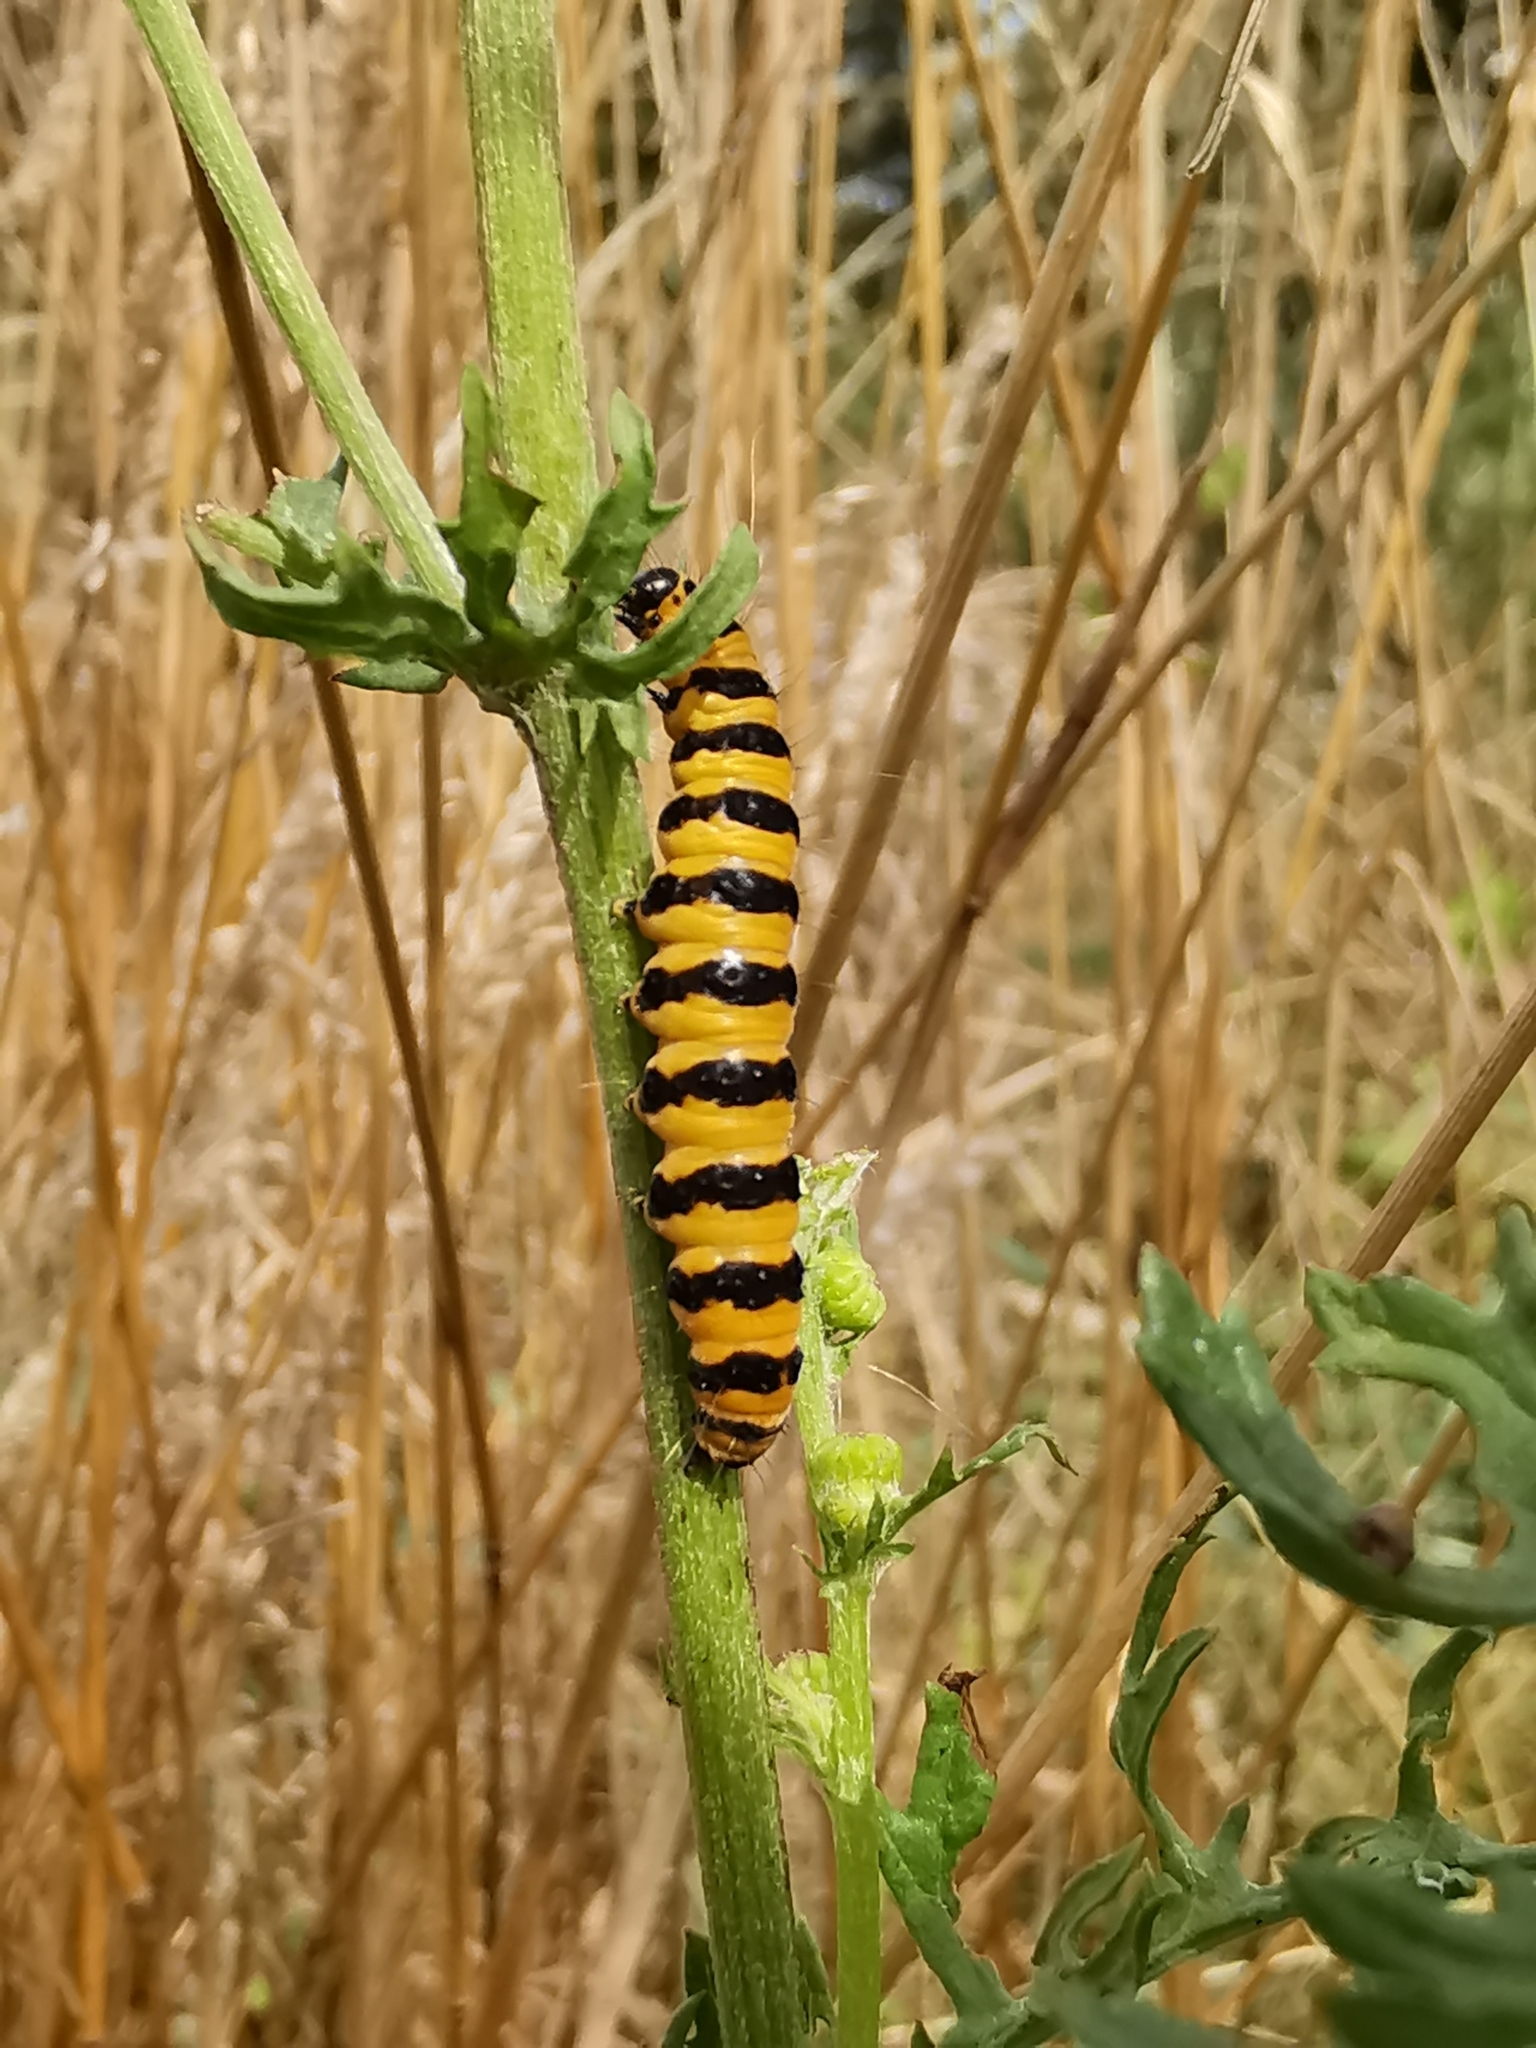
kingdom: Animalia
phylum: Arthropoda
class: Insecta
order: Lepidoptera
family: Erebidae
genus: Tyria
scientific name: Tyria jacobaeae
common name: Cinnabar
